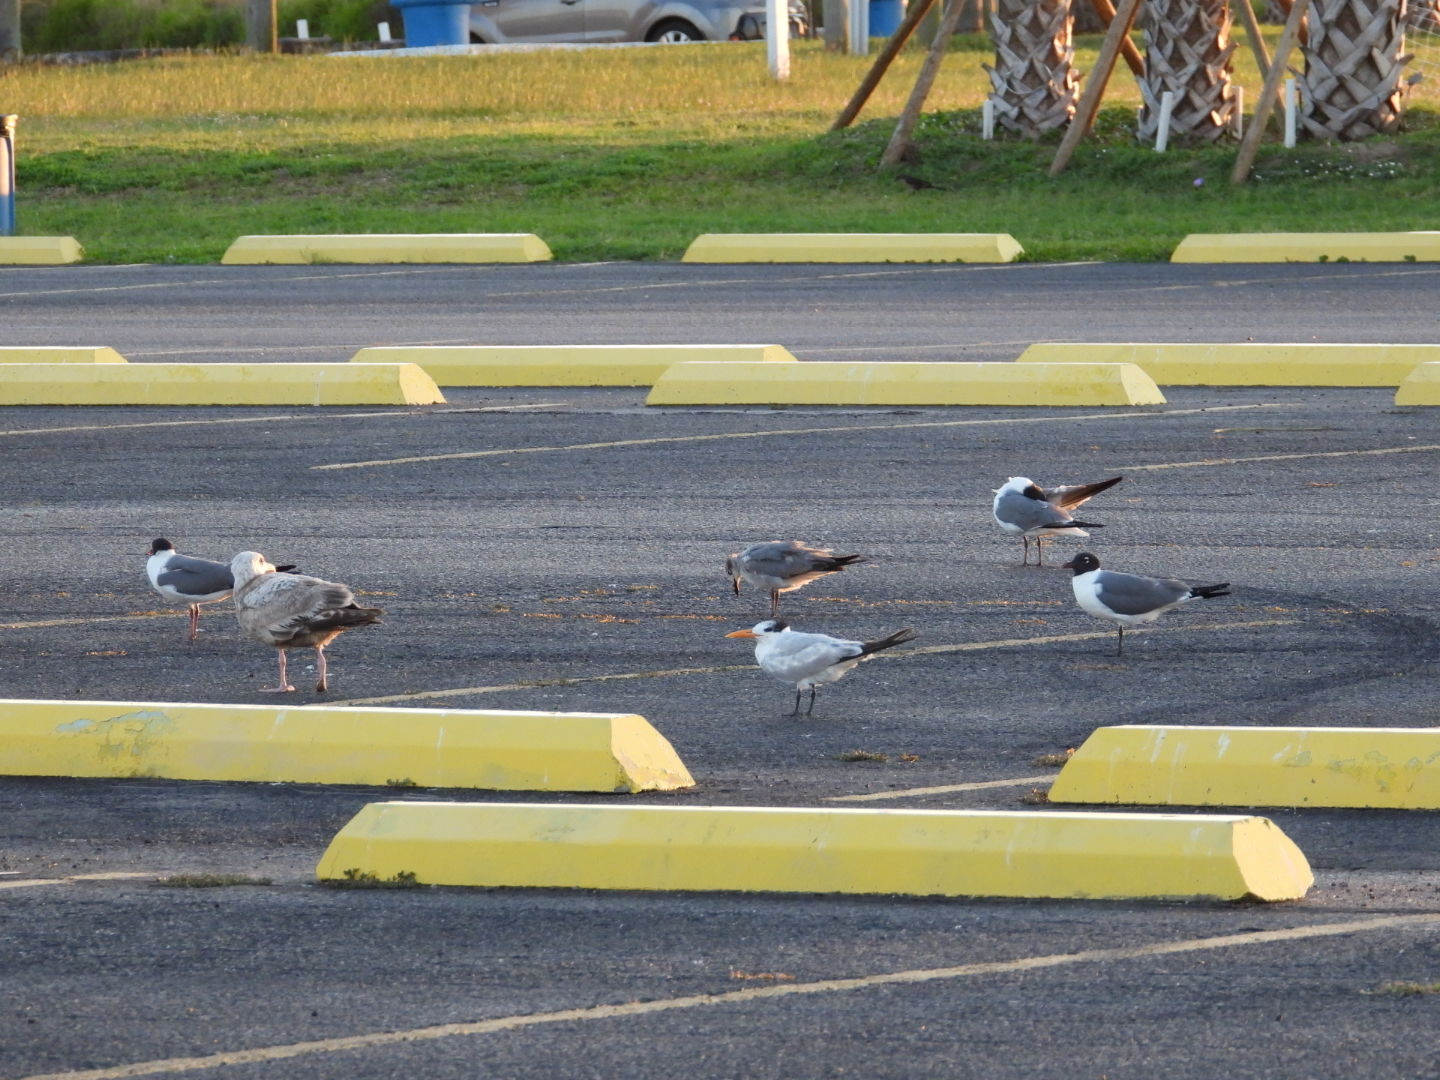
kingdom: Animalia
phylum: Chordata
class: Aves
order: Charadriiformes
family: Laridae
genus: Leucophaeus
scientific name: Leucophaeus atricilla
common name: Laughing gull
